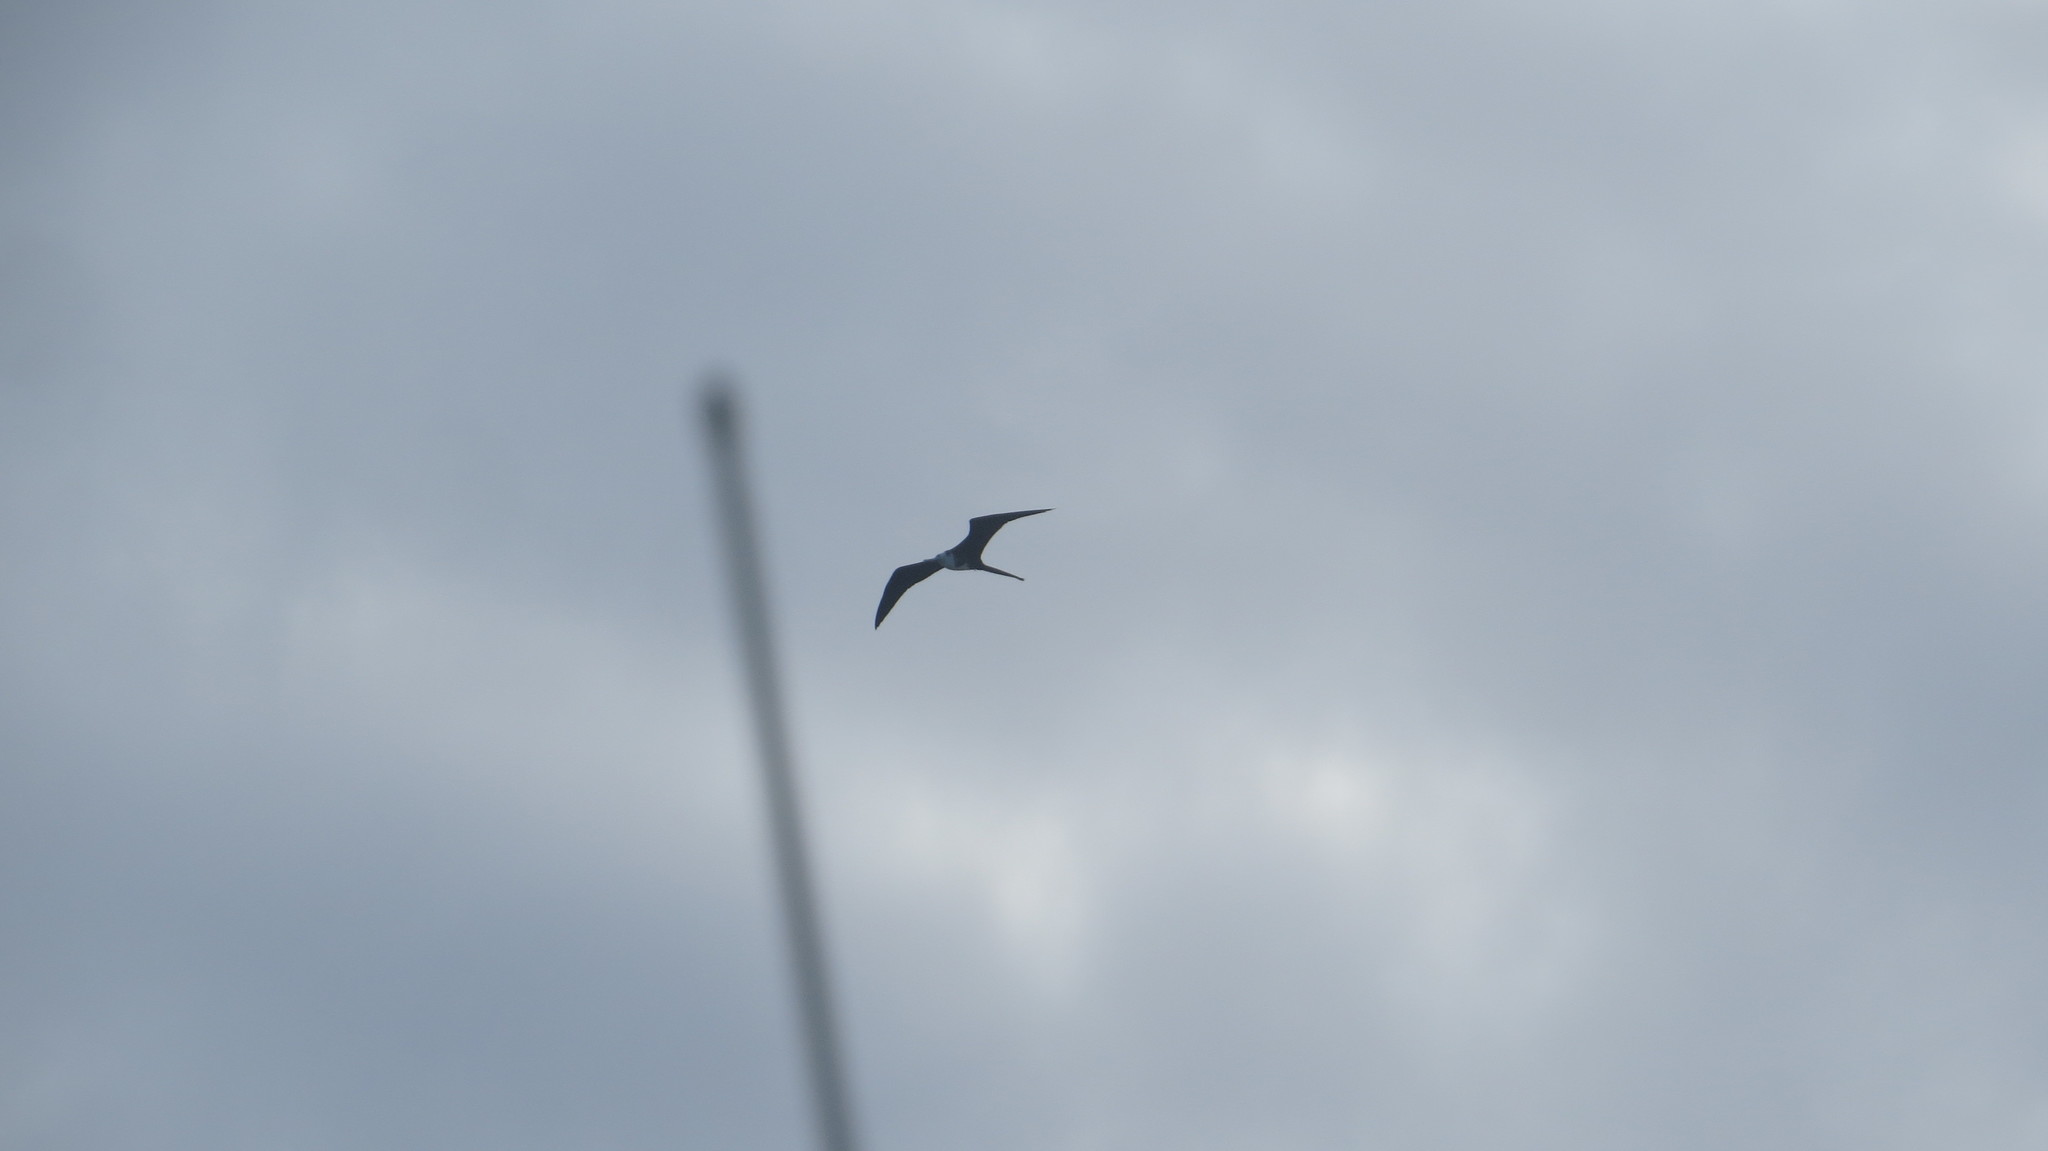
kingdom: Animalia
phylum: Chordata
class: Aves
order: Suliformes
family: Fregatidae
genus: Fregata
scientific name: Fregata magnificens
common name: Magnificent frigatebird
